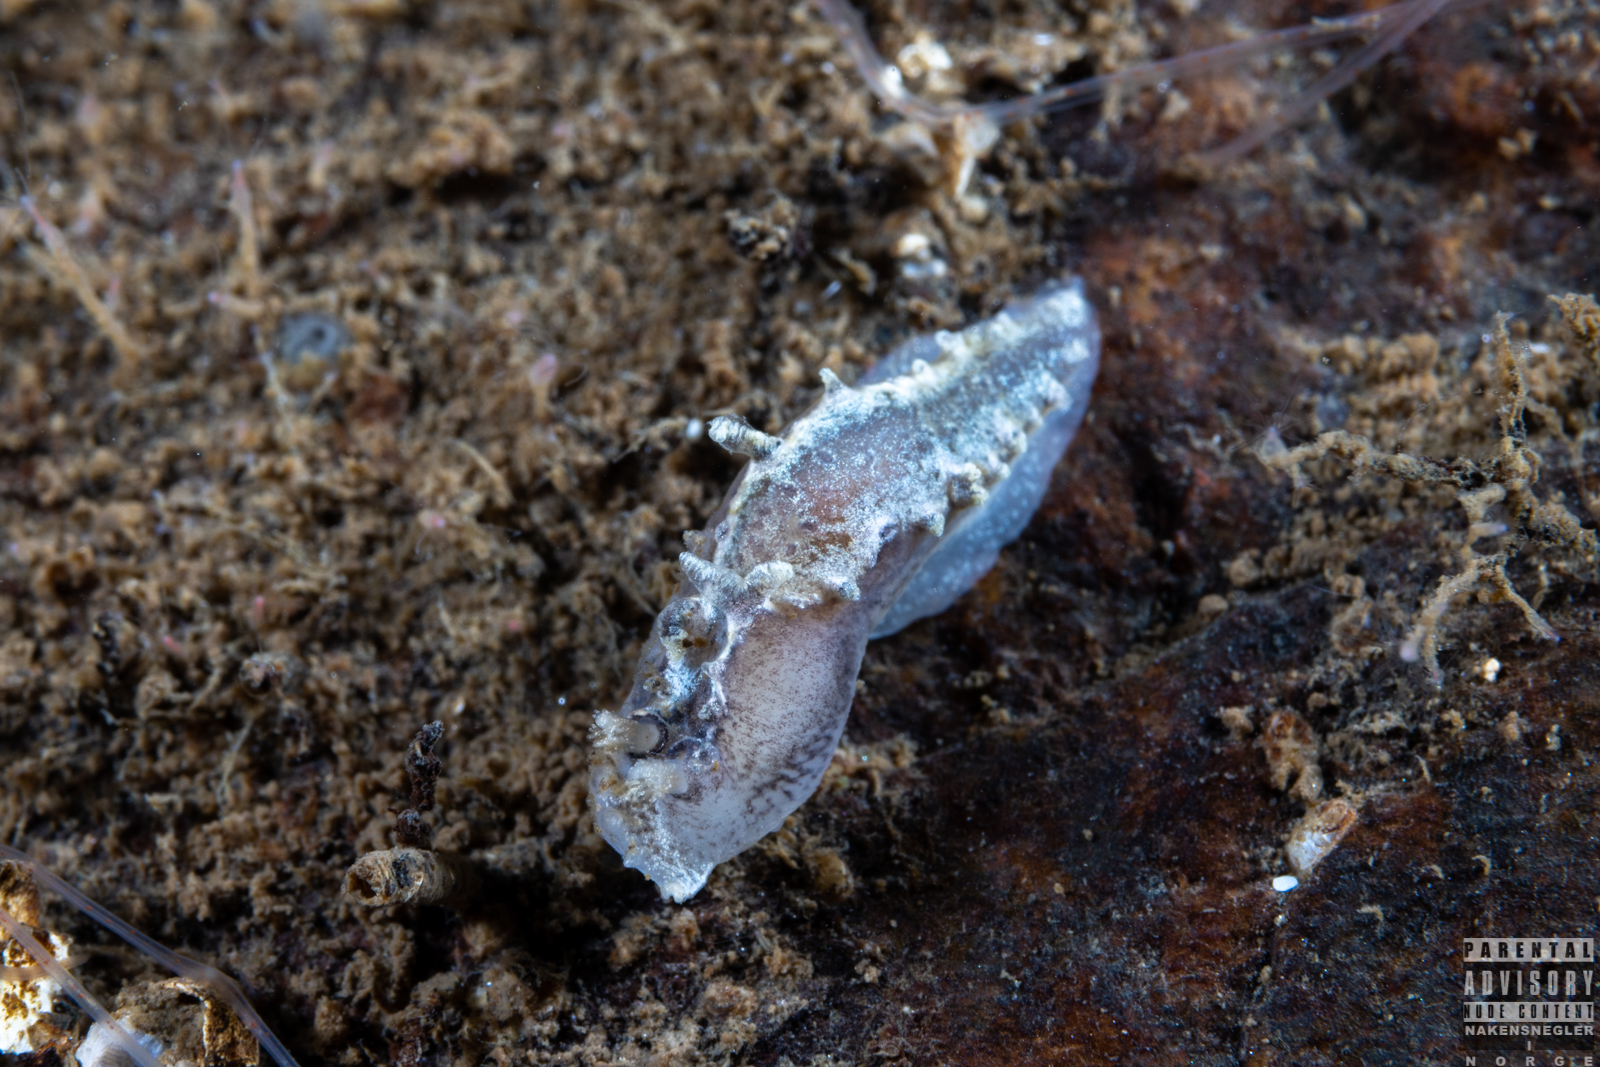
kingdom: Animalia
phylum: Mollusca
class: Gastropoda
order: Nudibranchia
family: Tritoniidae
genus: Duvaucelia
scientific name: Duvaucelia plebeia
